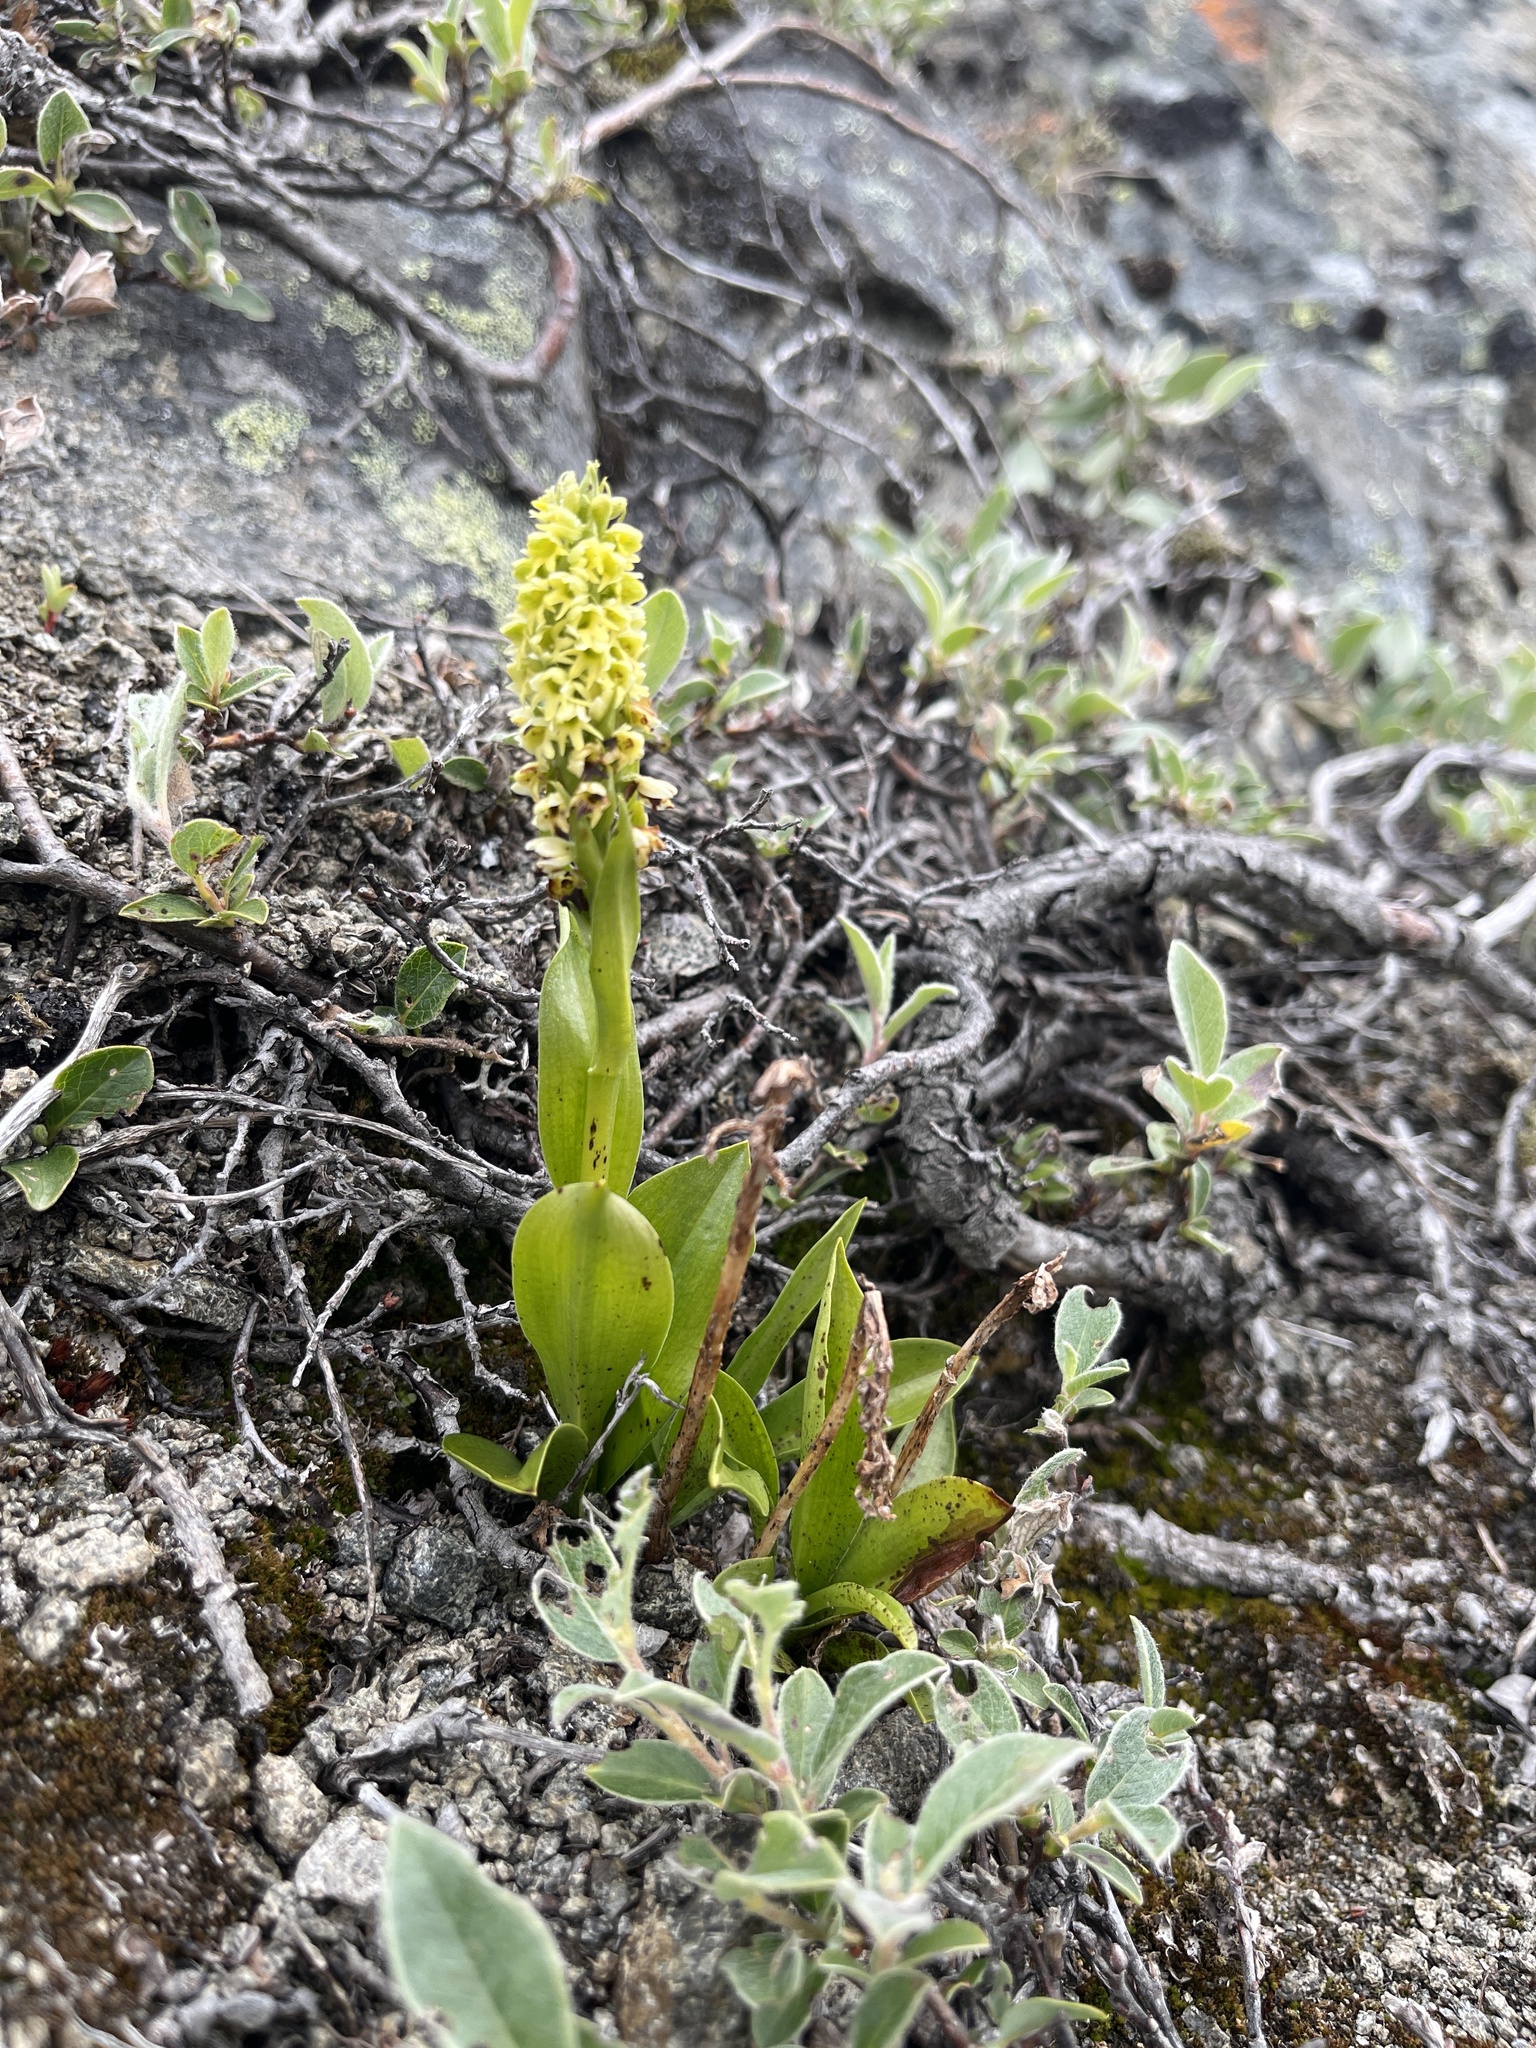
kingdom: Plantae
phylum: Tracheophyta
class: Liliopsida
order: Asparagales
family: Orchidaceae
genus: Pseudorchis
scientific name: Pseudorchis straminea
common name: Vanilla-scented bog orchid
